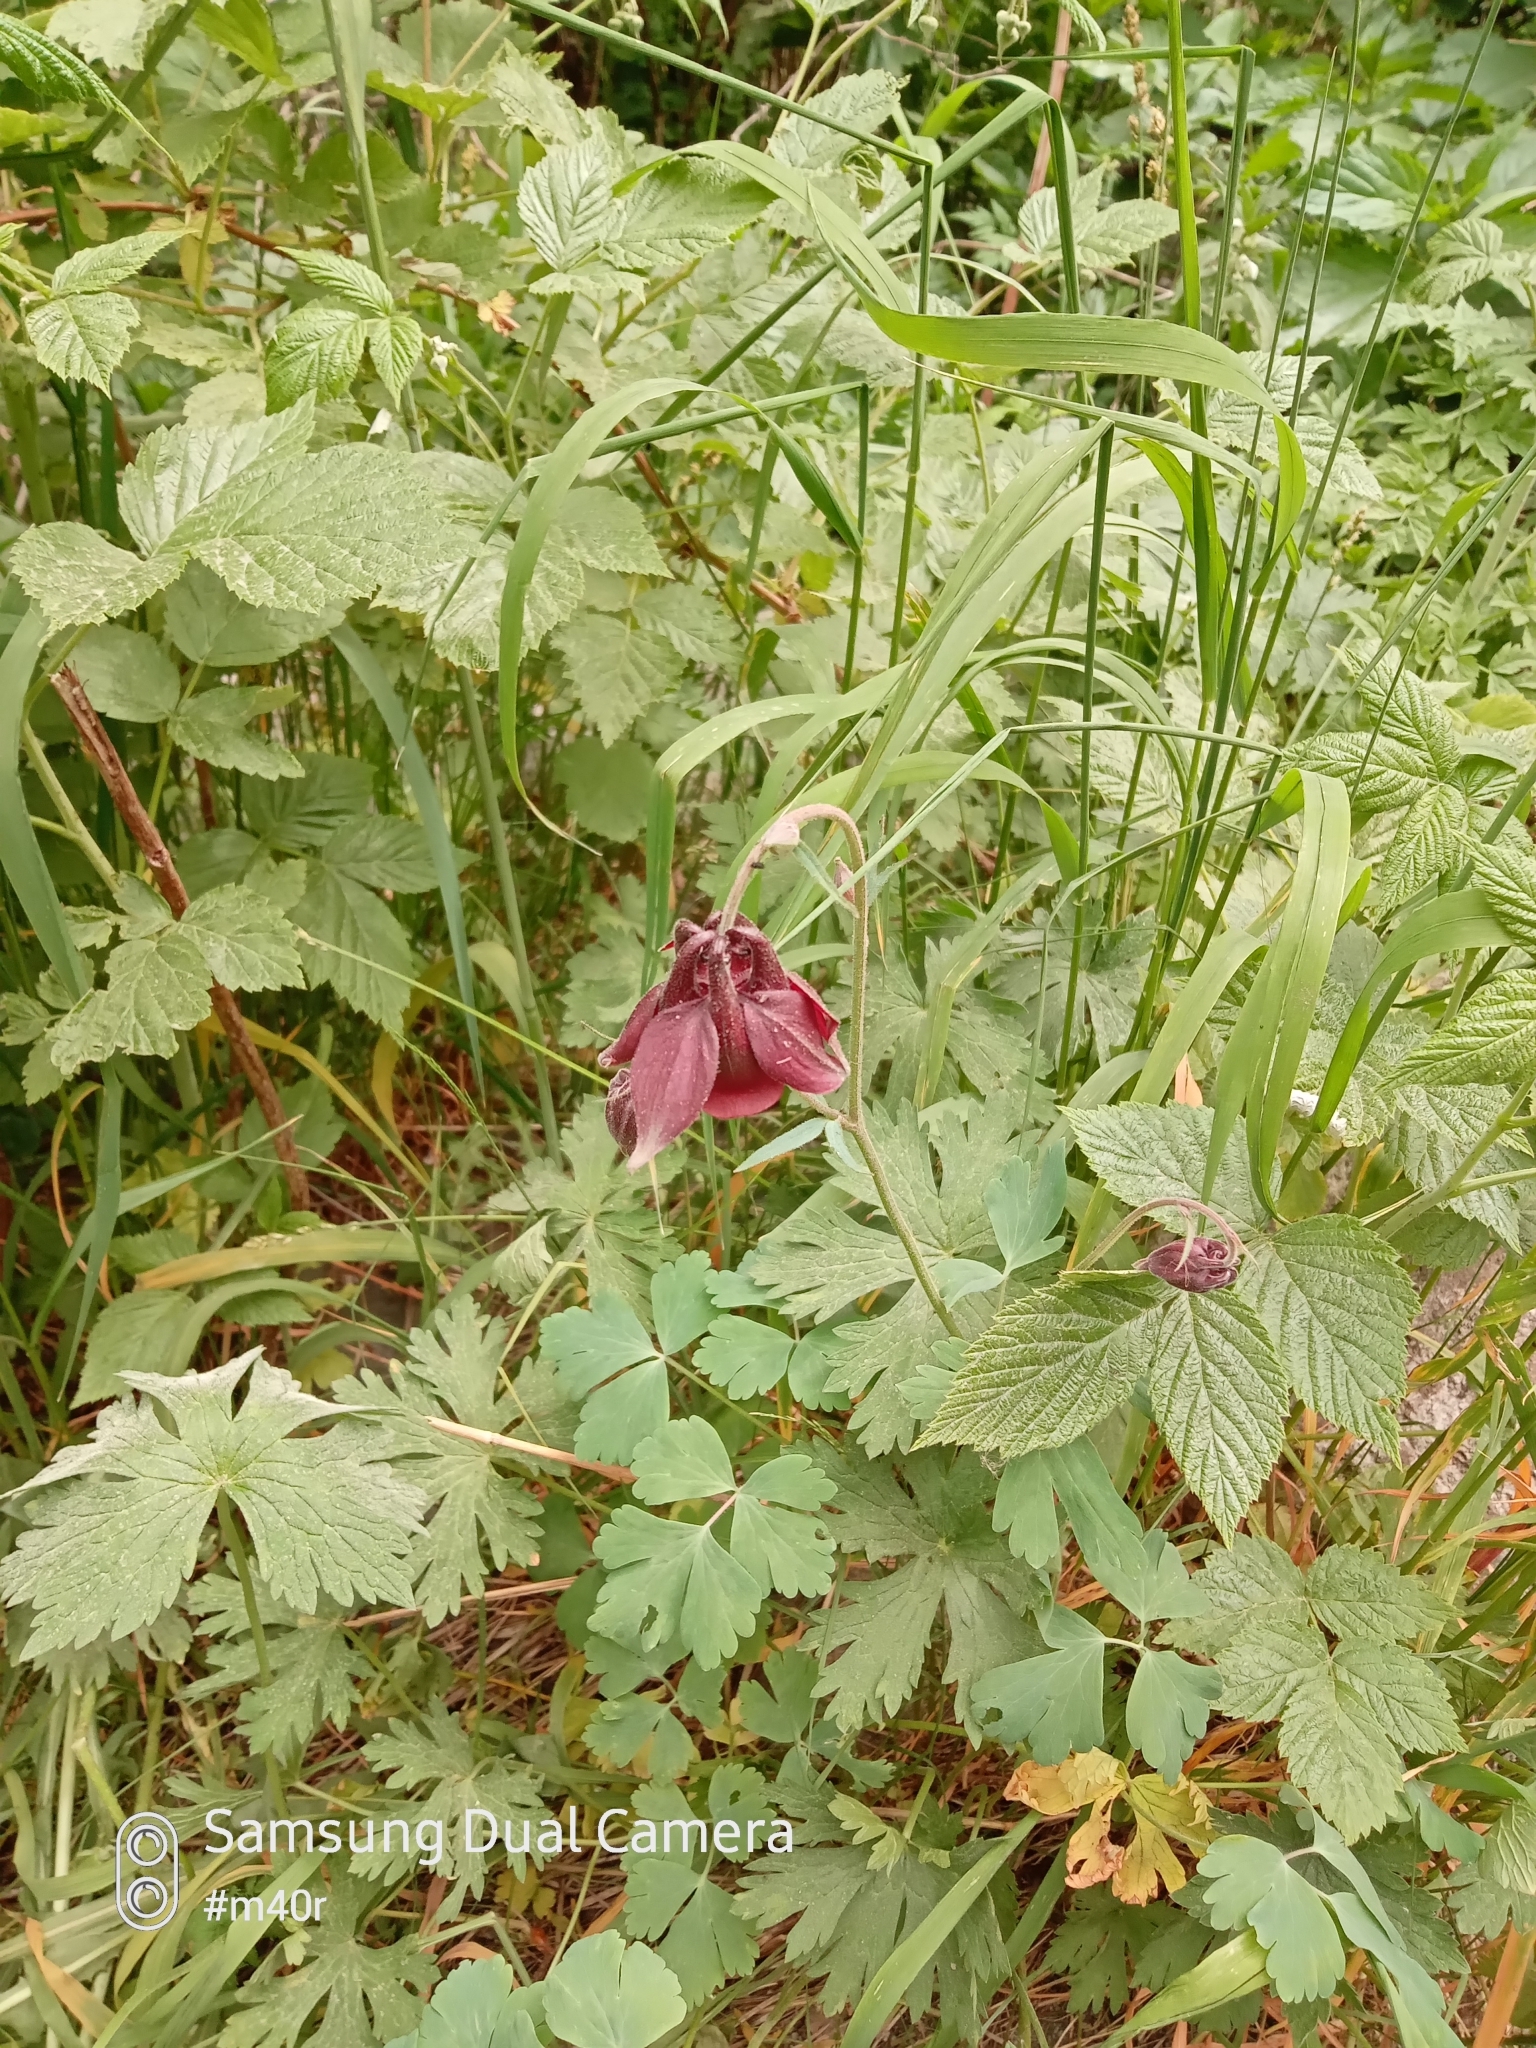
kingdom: Plantae
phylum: Tracheophyta
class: Magnoliopsida
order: Ranunculales
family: Ranunculaceae
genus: Aquilegia
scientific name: Aquilegia atrovinosa
